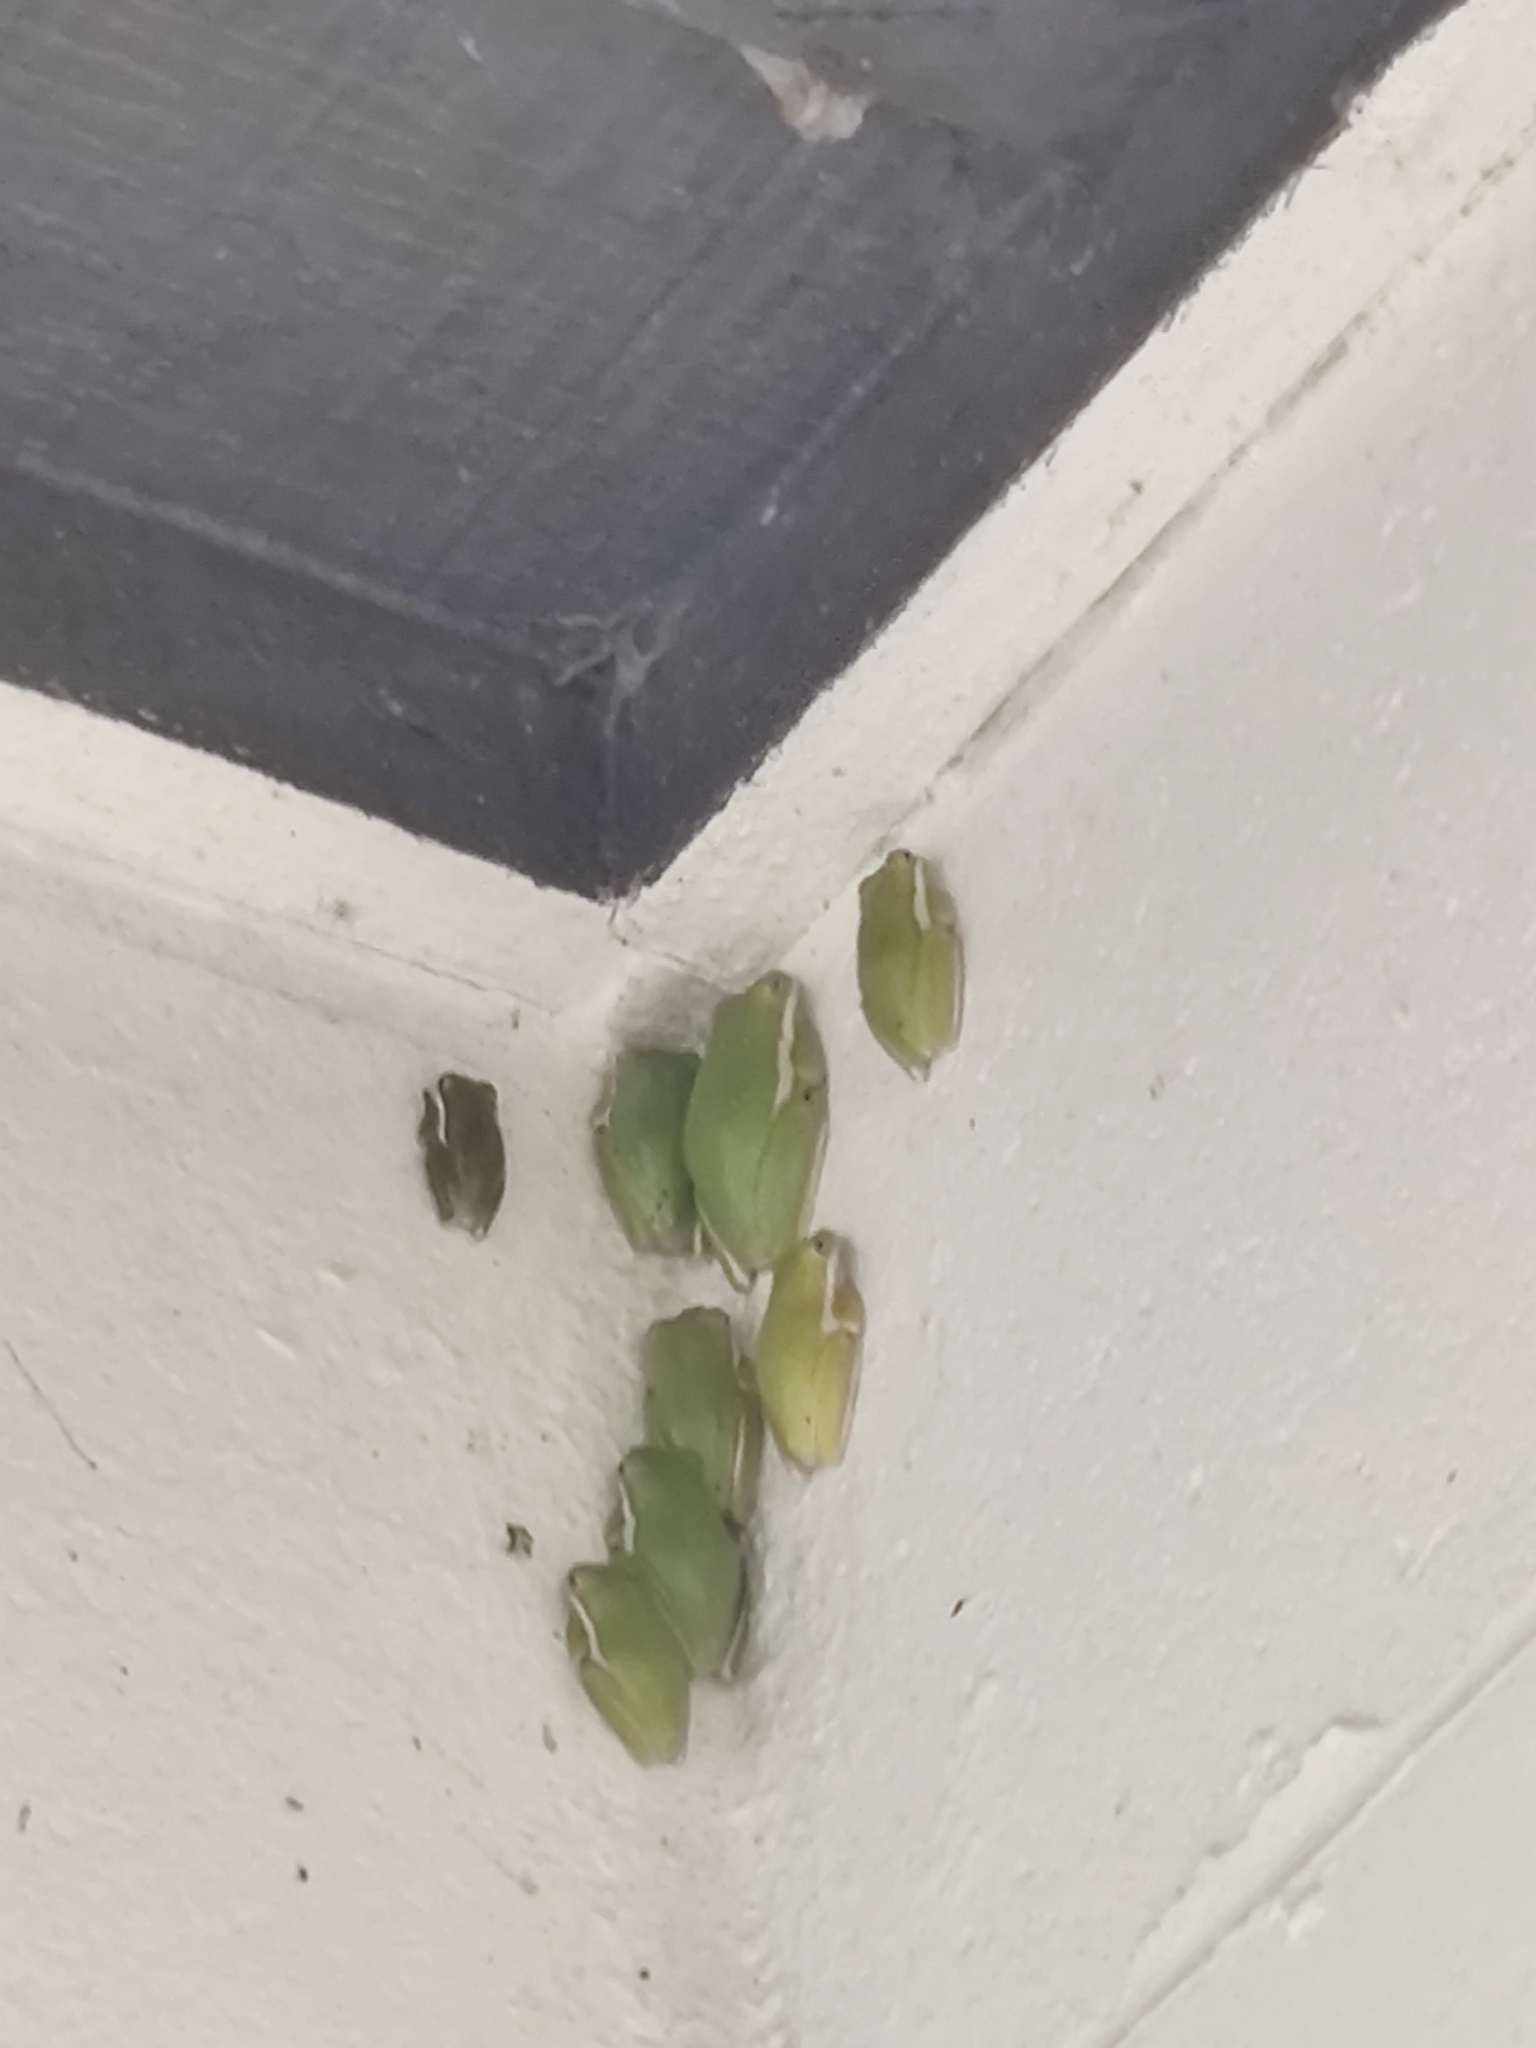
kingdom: Animalia
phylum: Chordata
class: Amphibia
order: Anura
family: Hylidae
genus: Dryophytes
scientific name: Dryophytes cinereus
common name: Green treefrog
